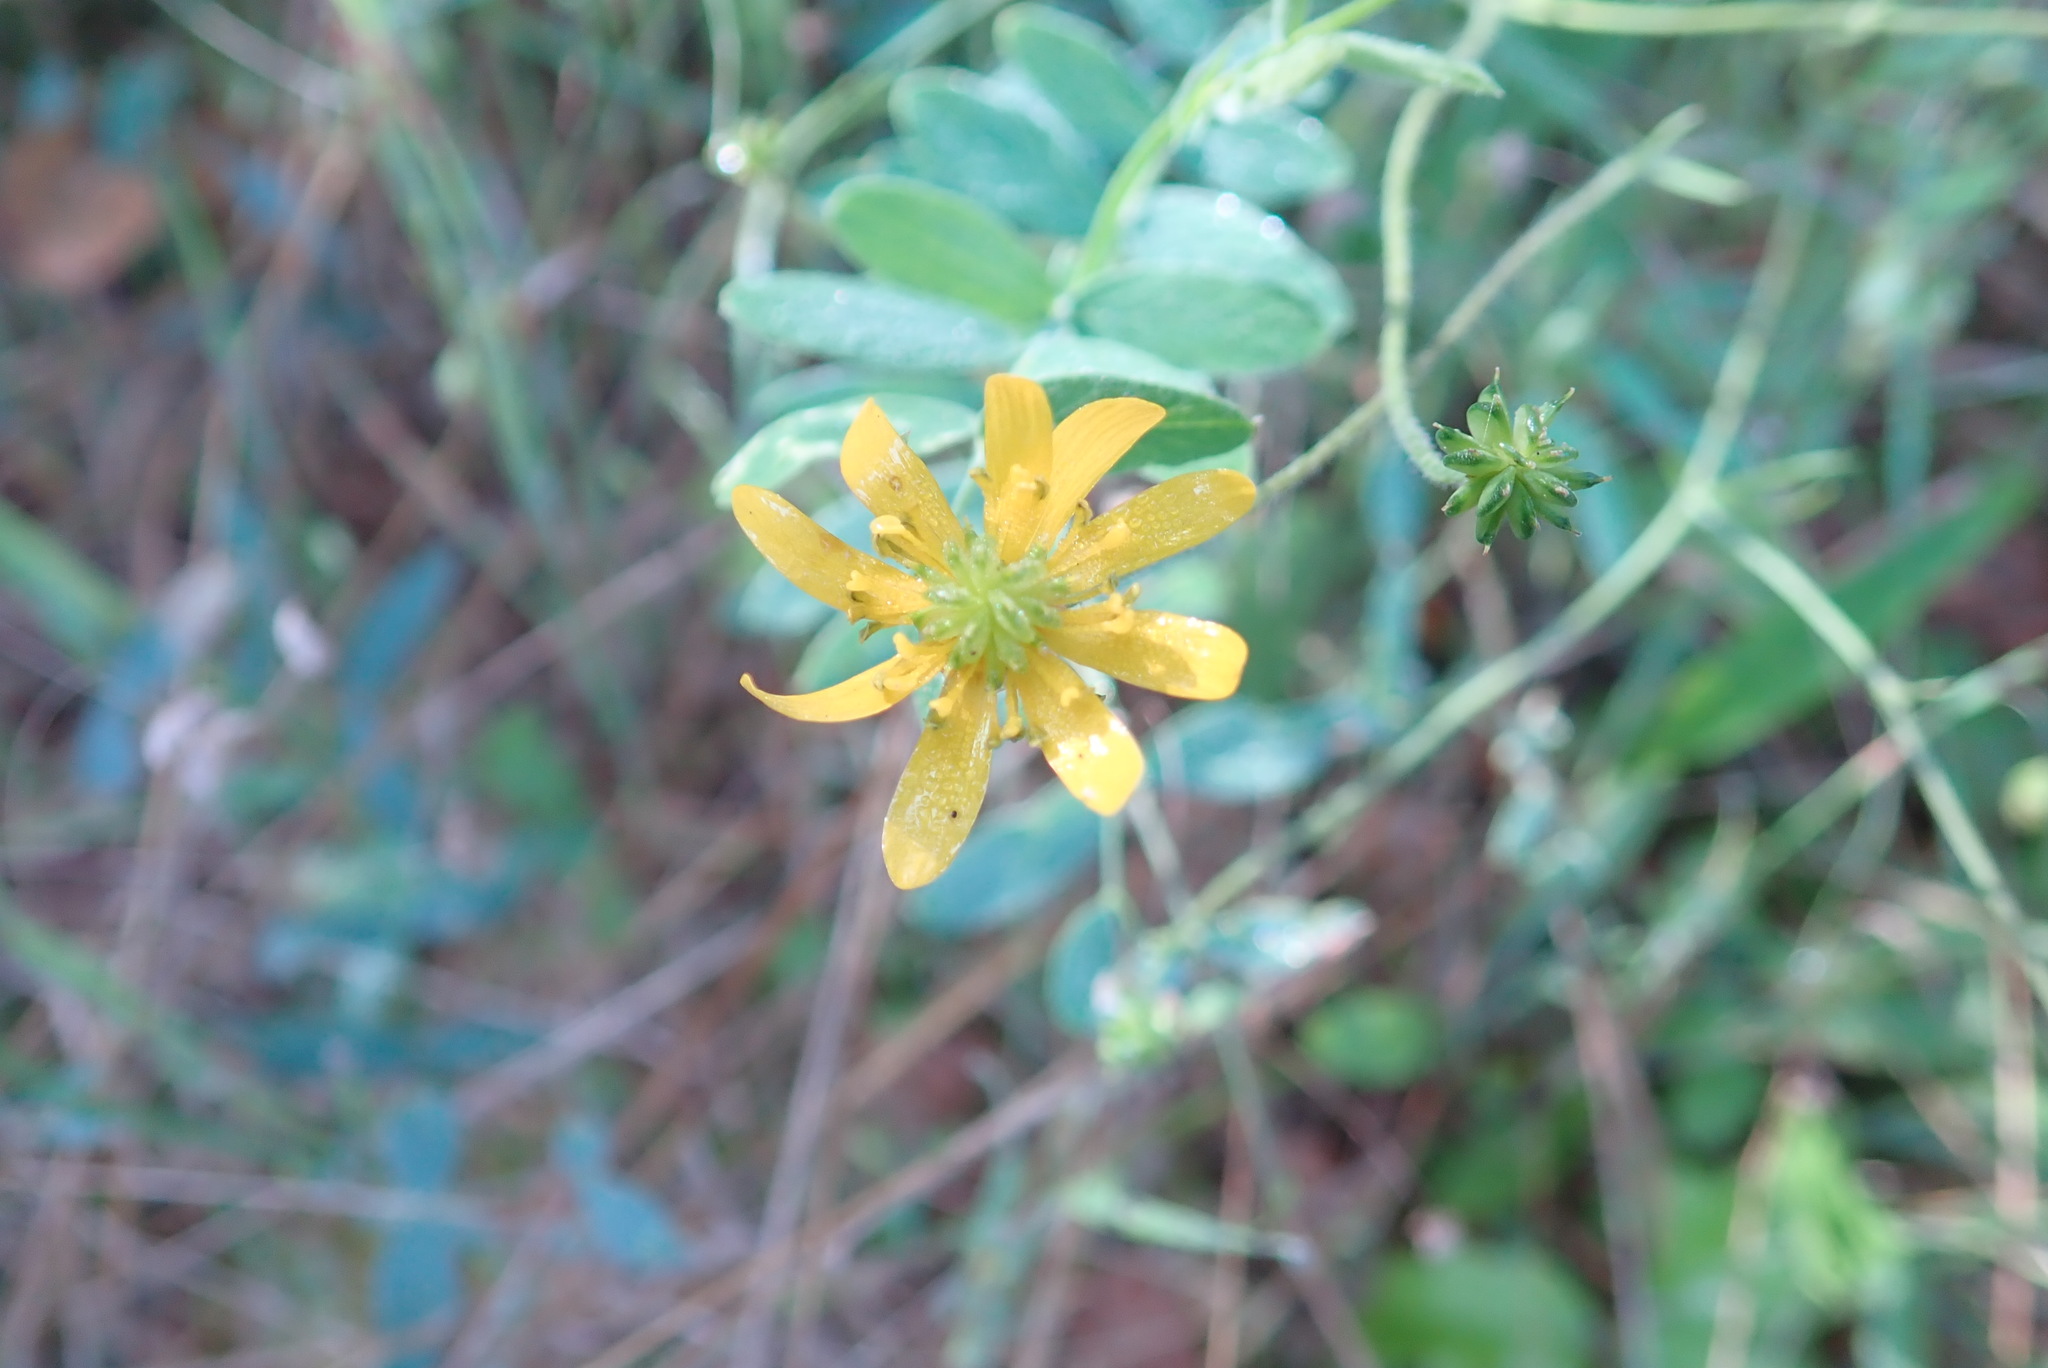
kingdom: Plantae
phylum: Tracheophyta
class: Magnoliopsida
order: Ranunculales
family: Ranunculaceae
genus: Ranunculus
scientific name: Ranunculus californicus
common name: California buttercup
